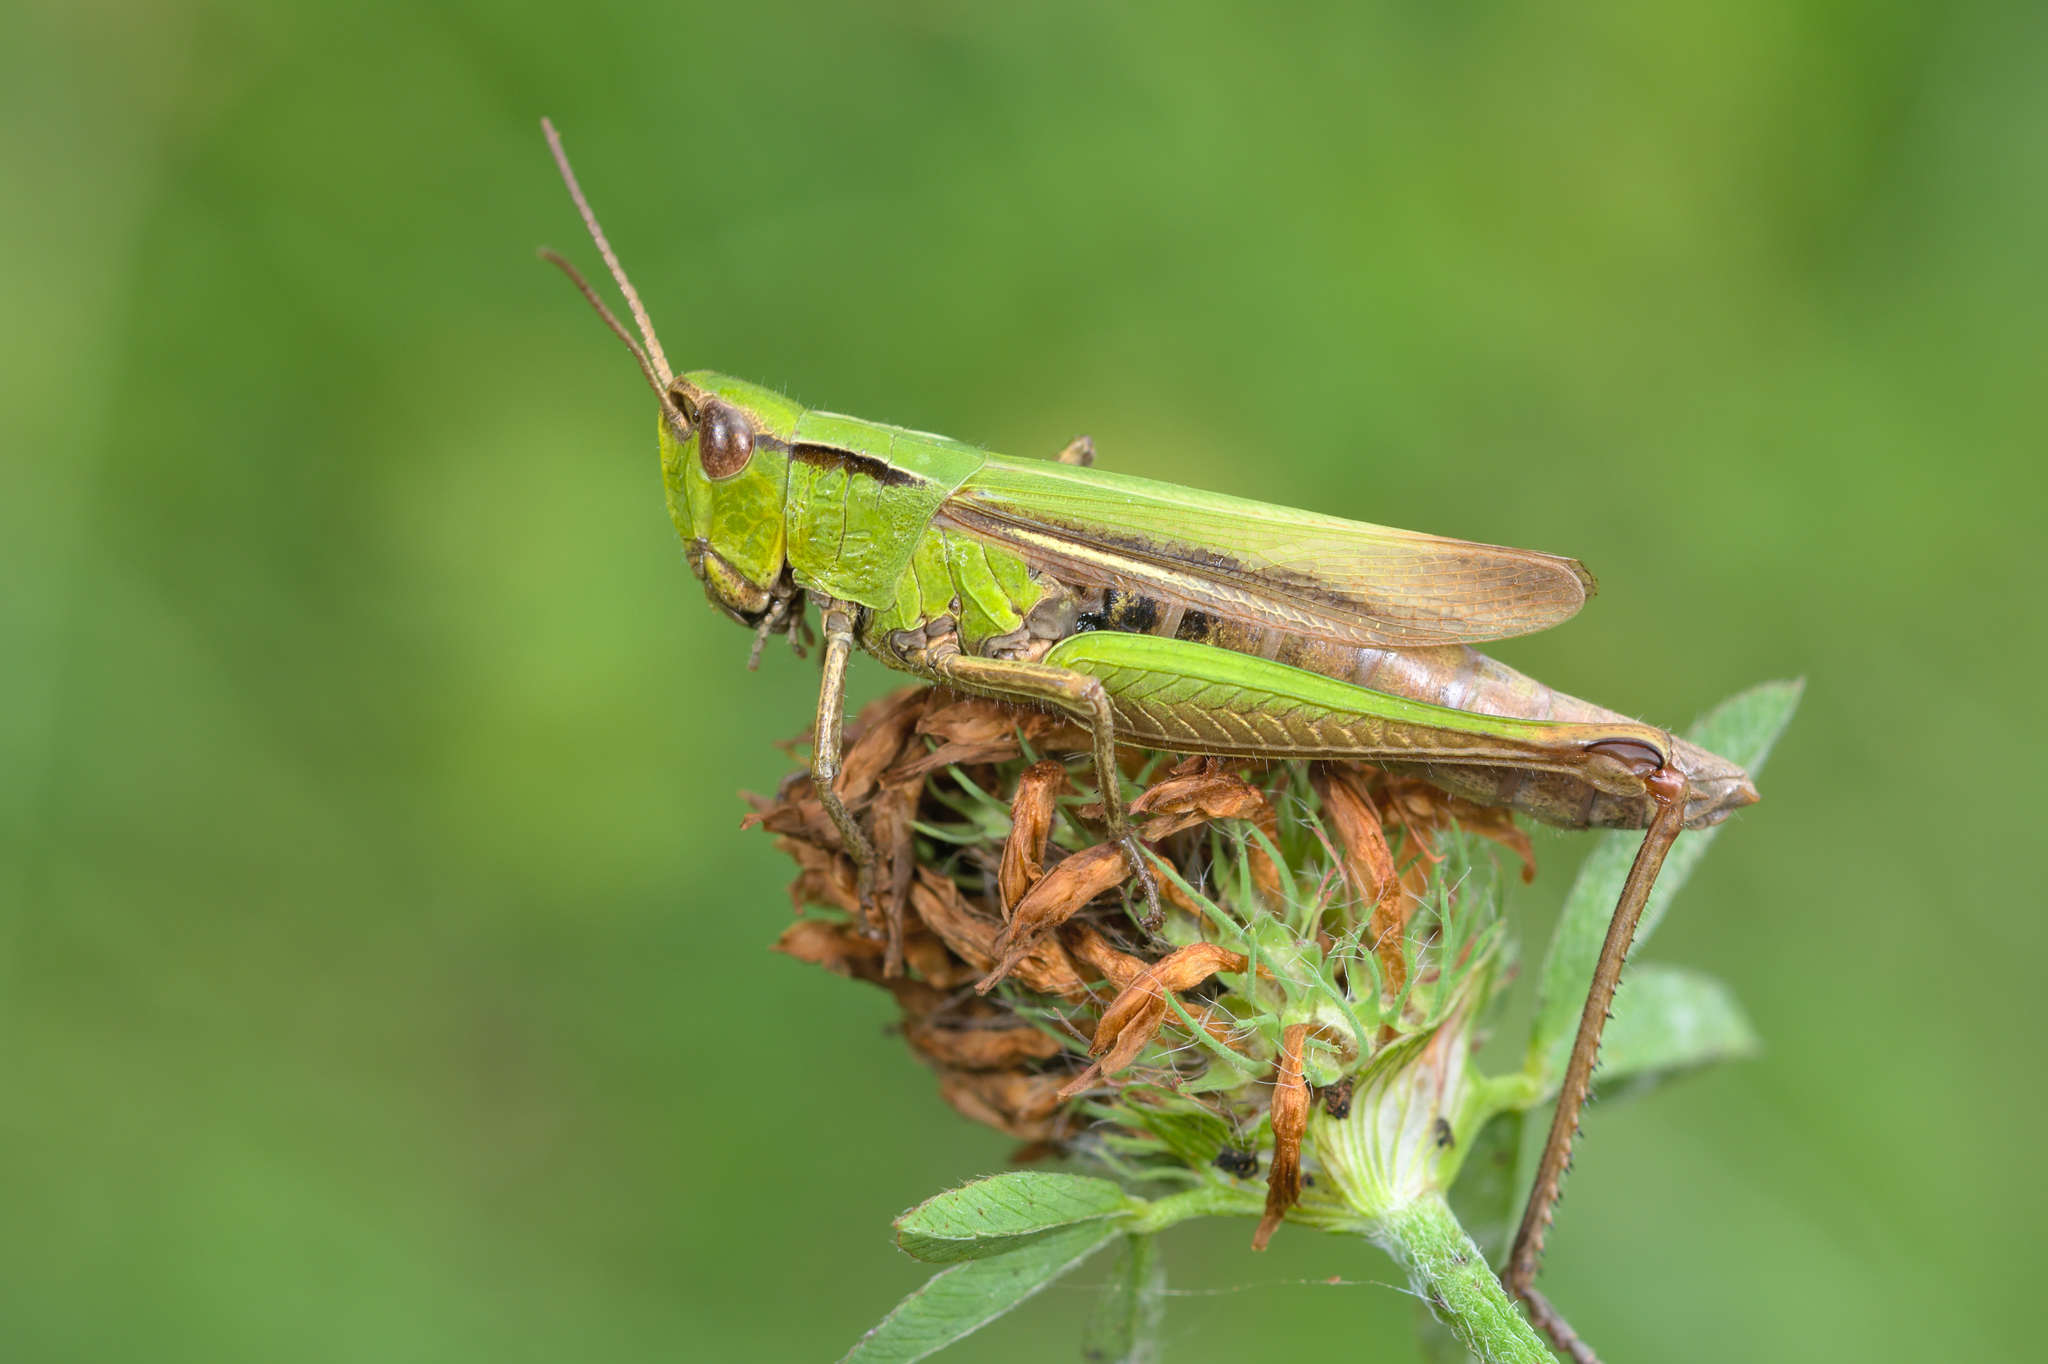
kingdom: Animalia
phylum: Arthropoda
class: Insecta
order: Orthoptera
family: Acrididae
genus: Chorthippus
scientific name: Chorthippus dorsatus
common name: Steppe grasshopper
